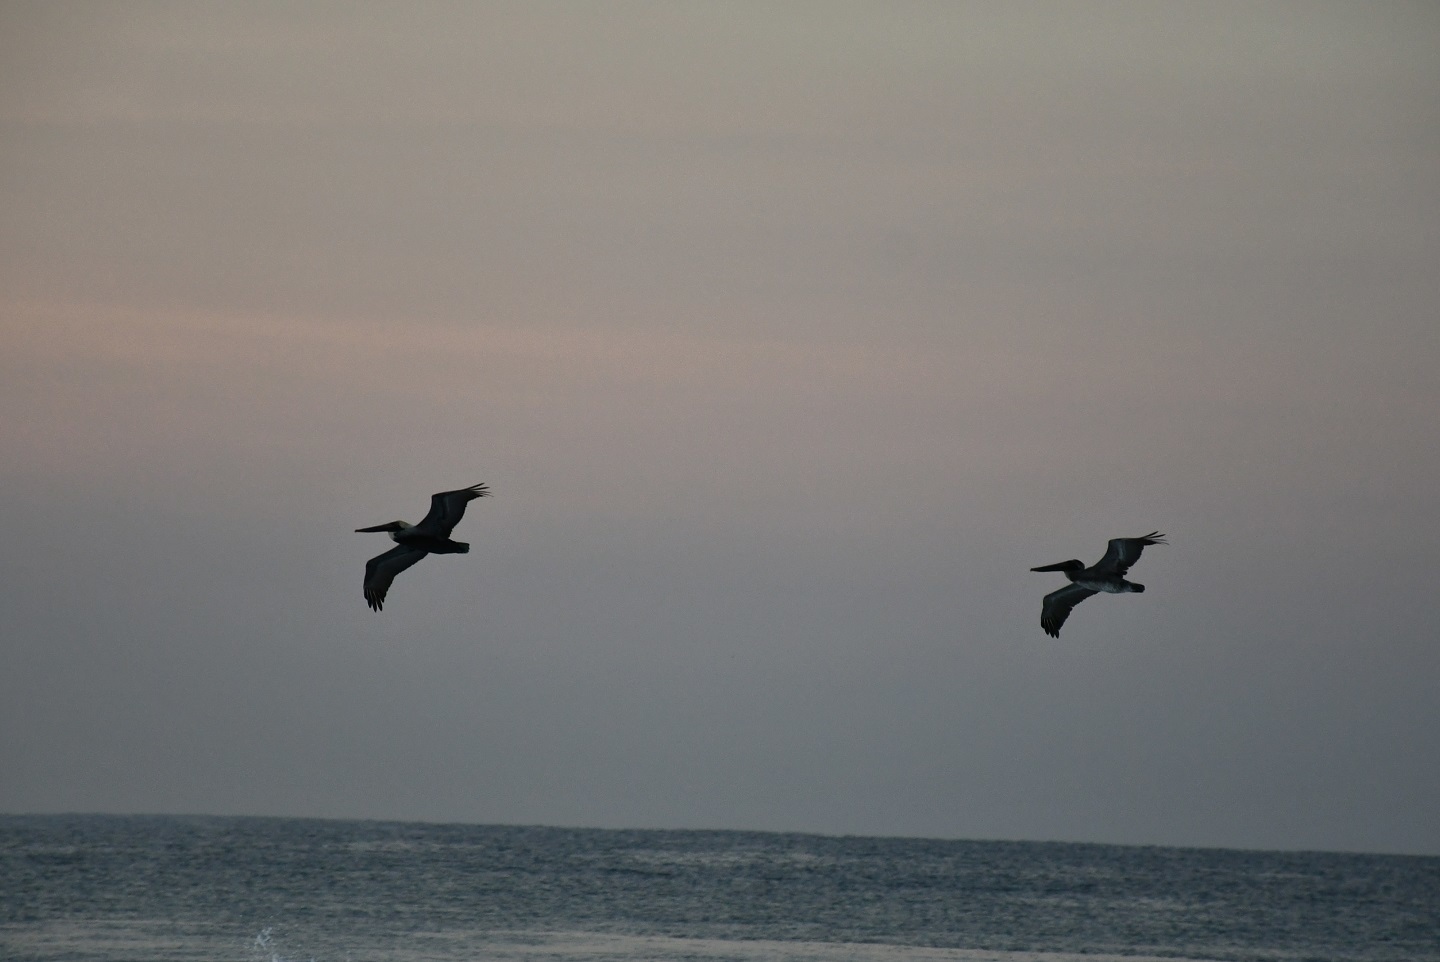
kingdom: Animalia
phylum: Chordata
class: Aves
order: Pelecaniformes
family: Pelecanidae
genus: Pelecanus
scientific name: Pelecanus occidentalis
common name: Brown pelican
